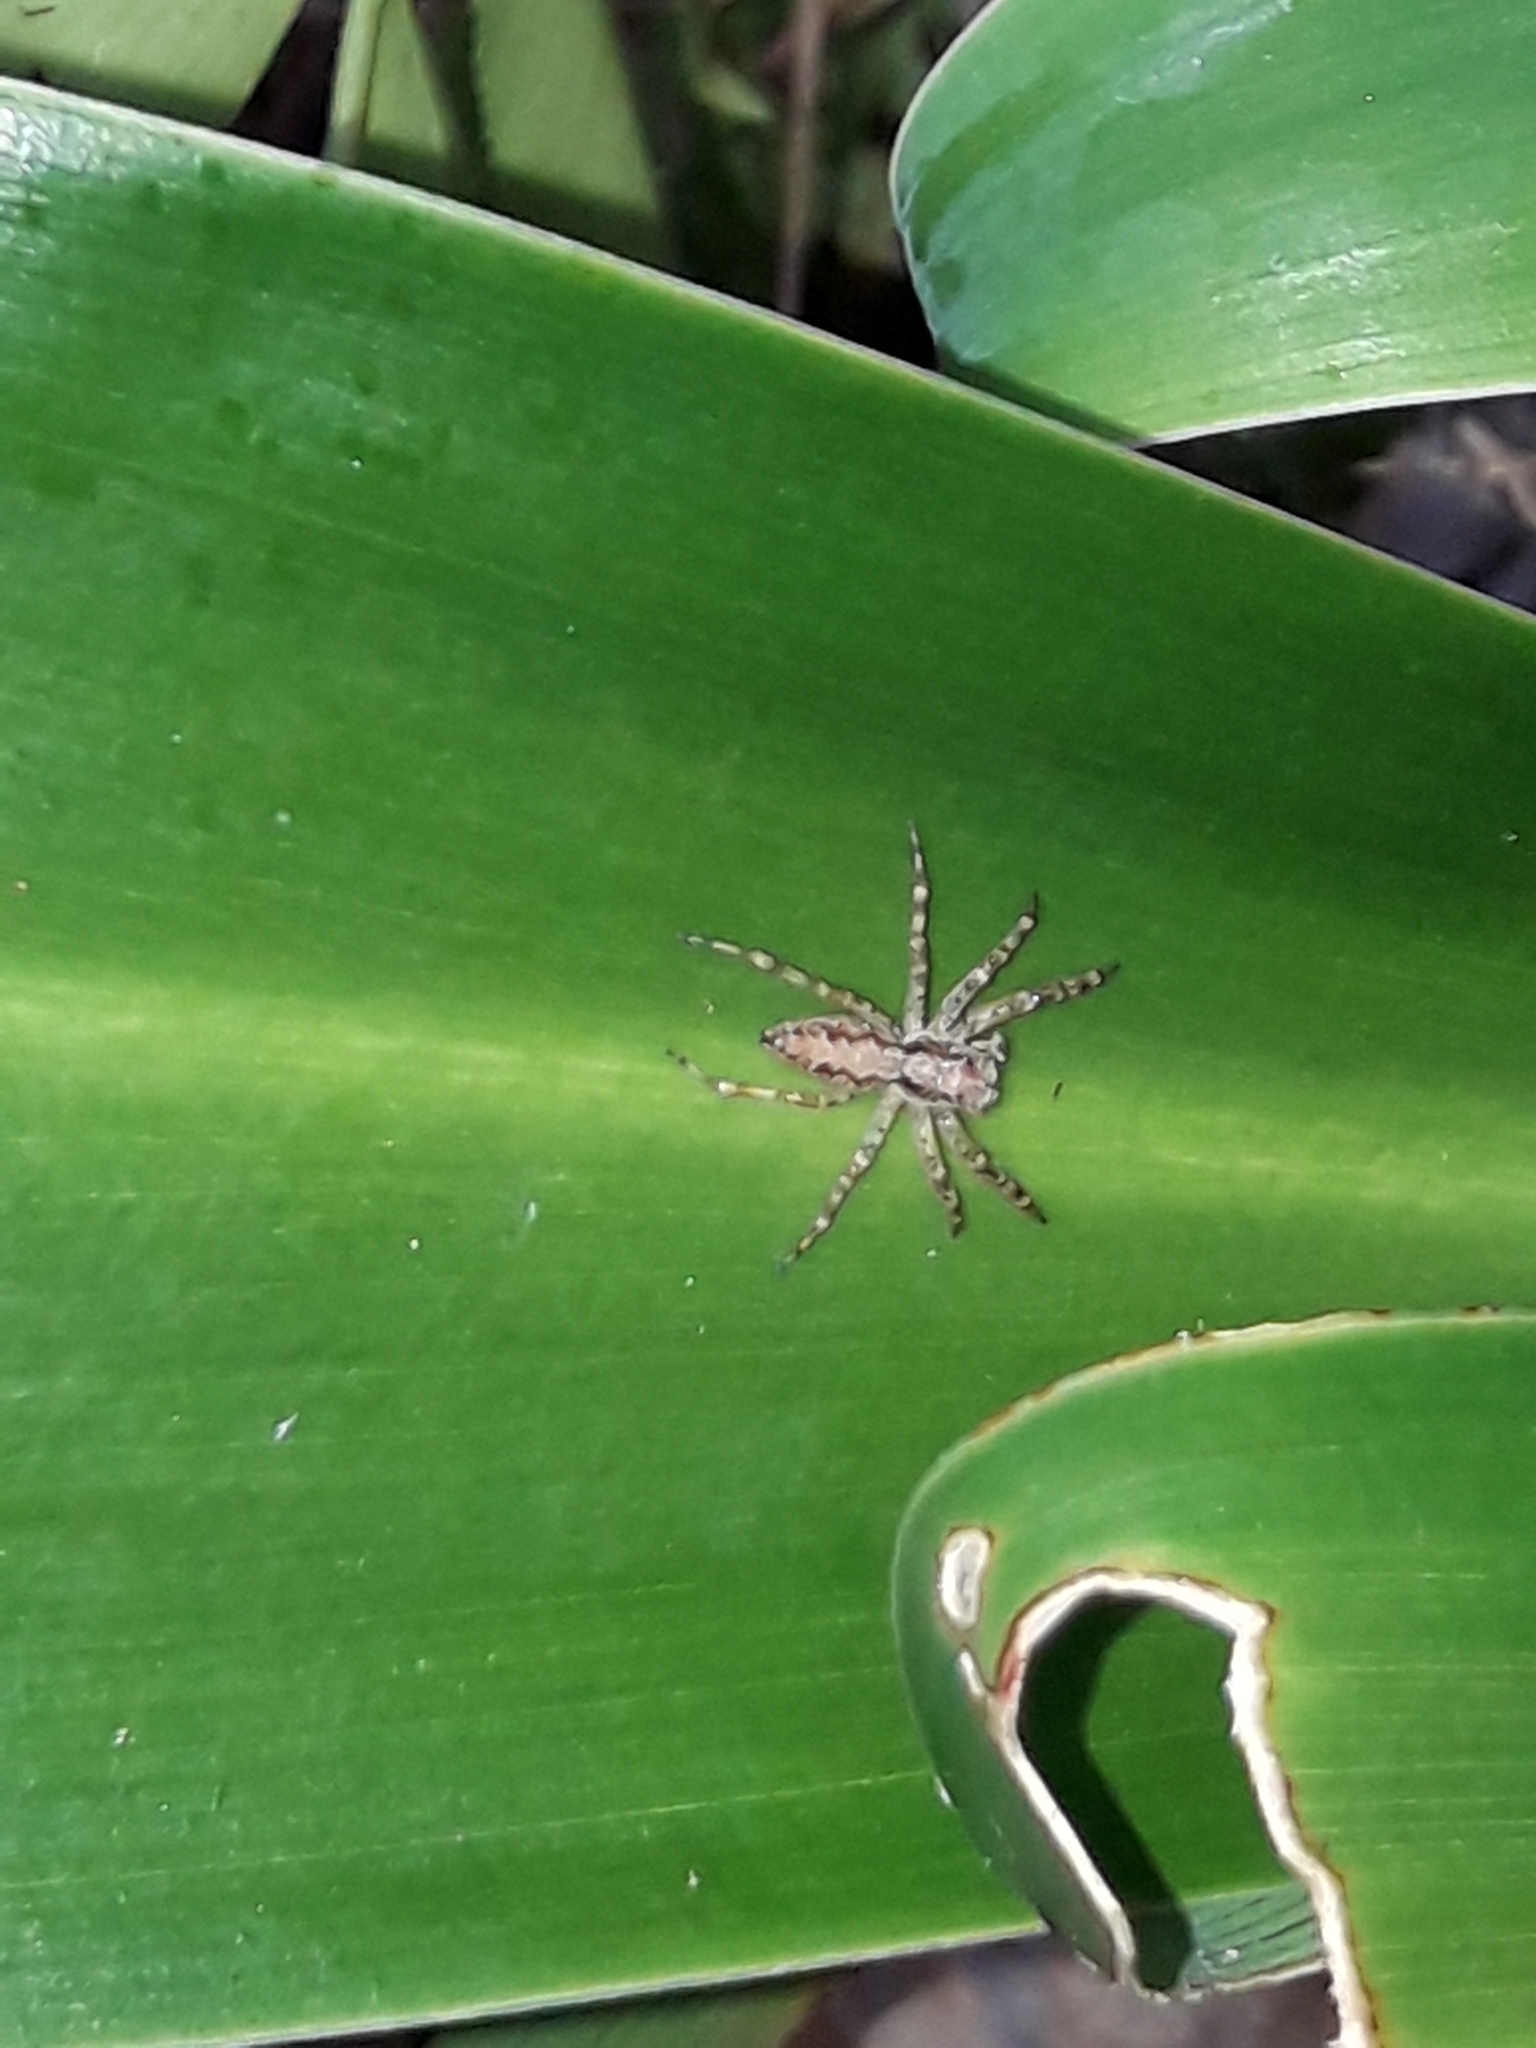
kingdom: Animalia
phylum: Arthropoda
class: Arachnida
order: Araneae
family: Salticidae
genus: Helpis
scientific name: Helpis minitabunda
